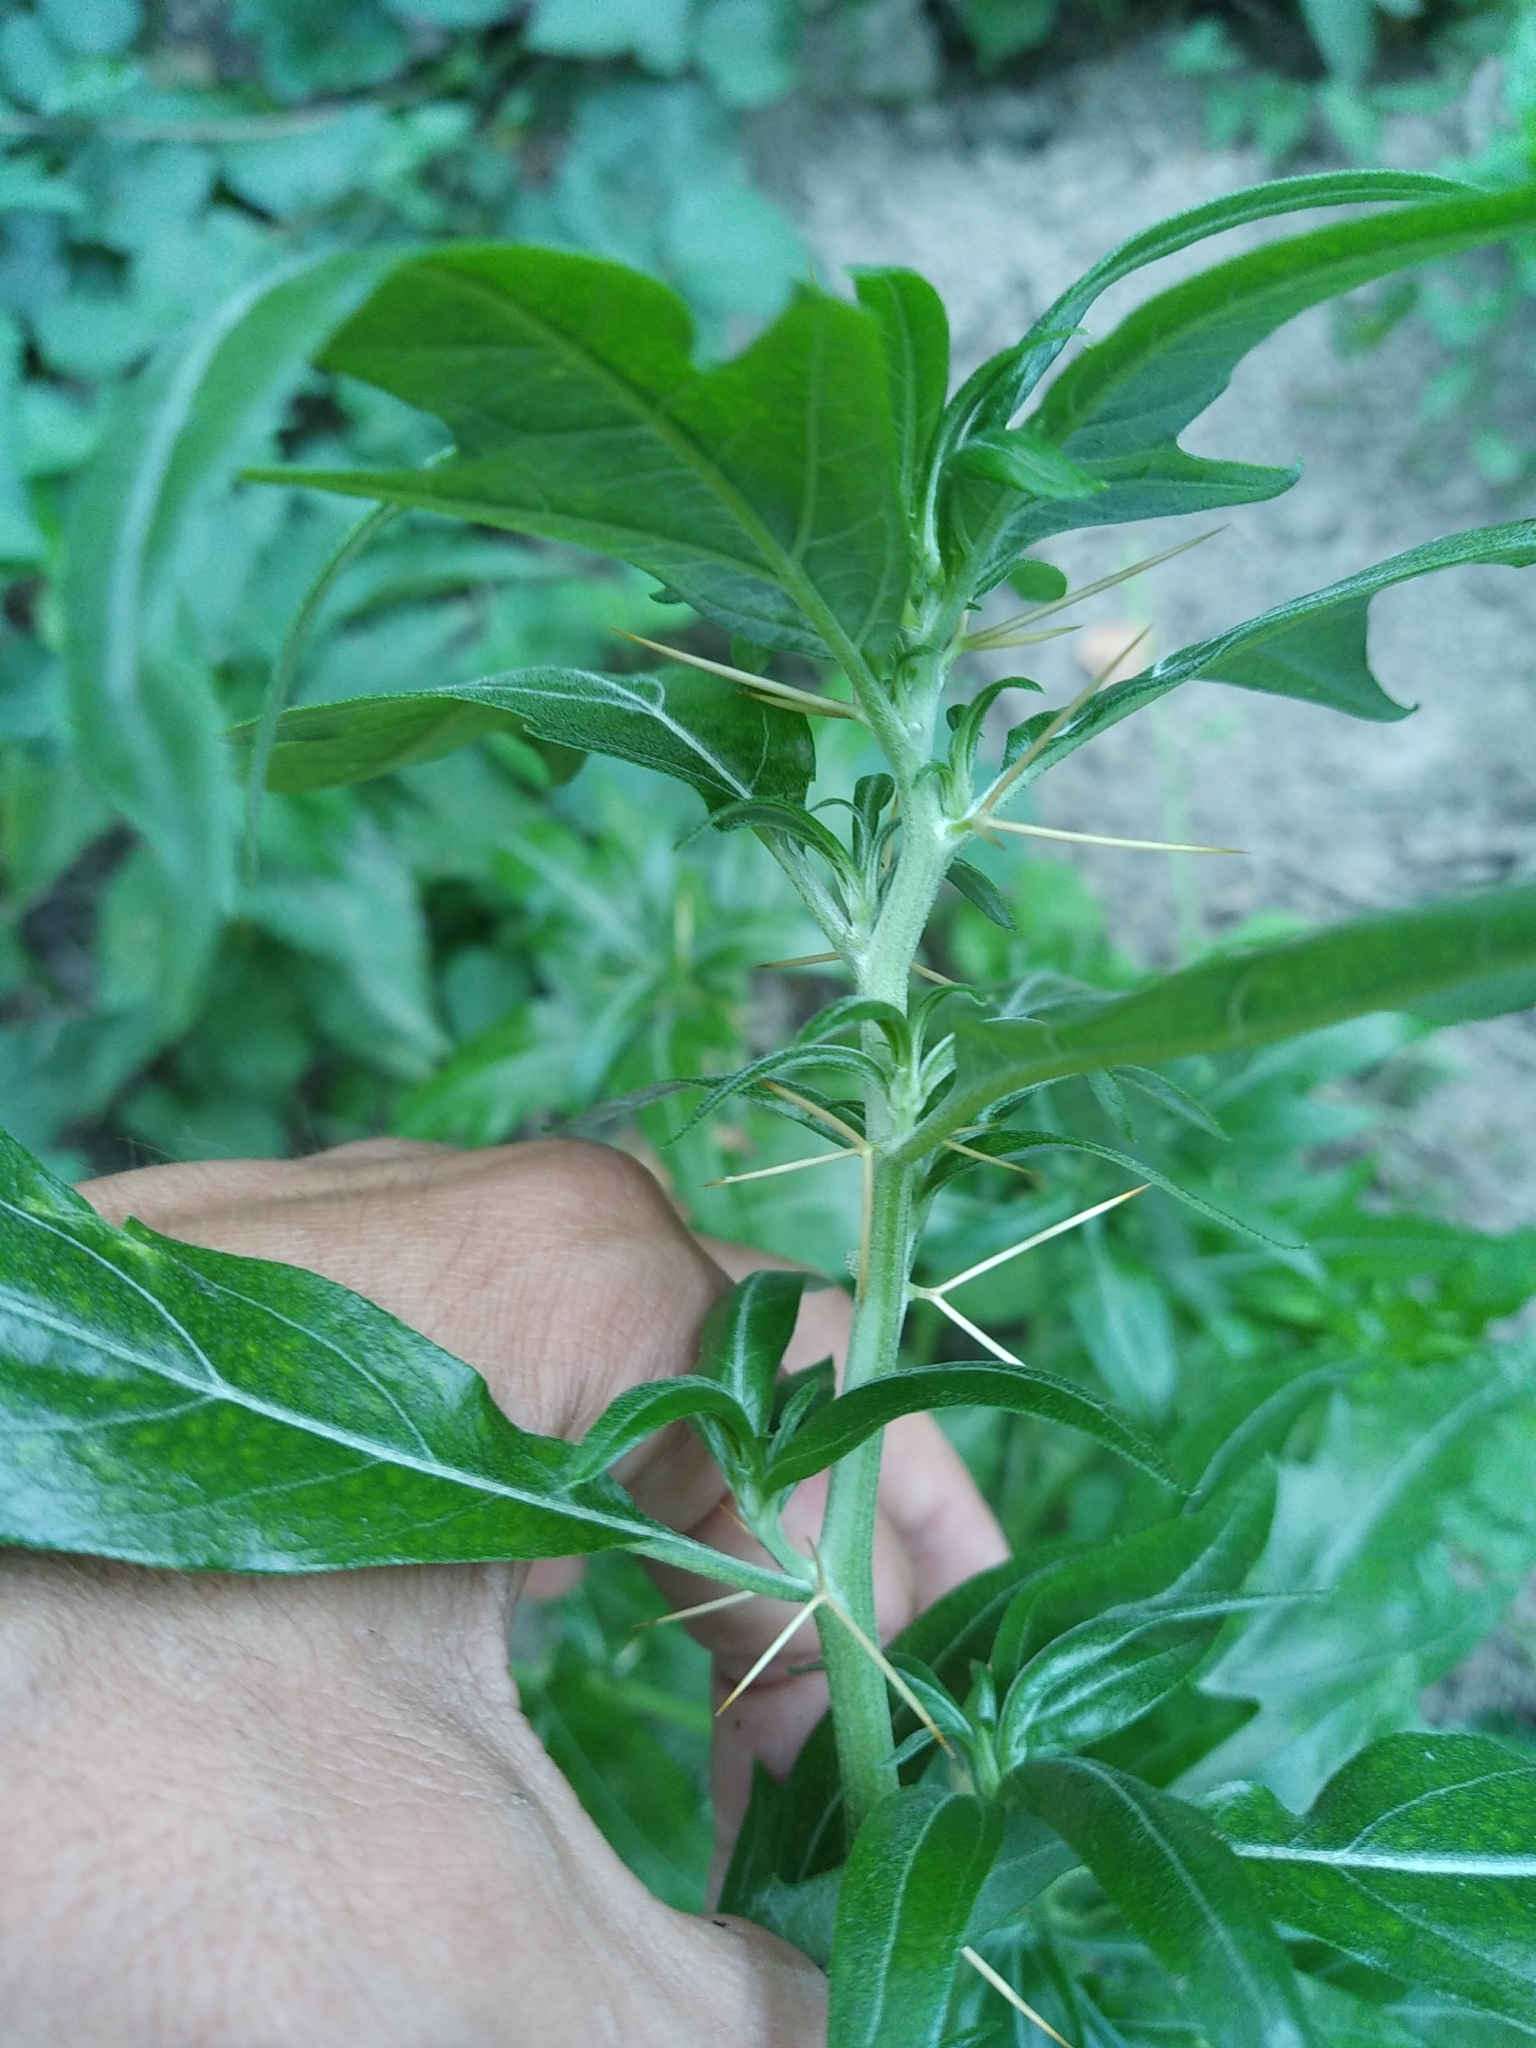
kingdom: Plantae
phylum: Tracheophyta
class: Magnoliopsida
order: Asterales
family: Asteraceae
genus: Xanthium
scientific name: Xanthium spinosum
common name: Spiny cocklebur
